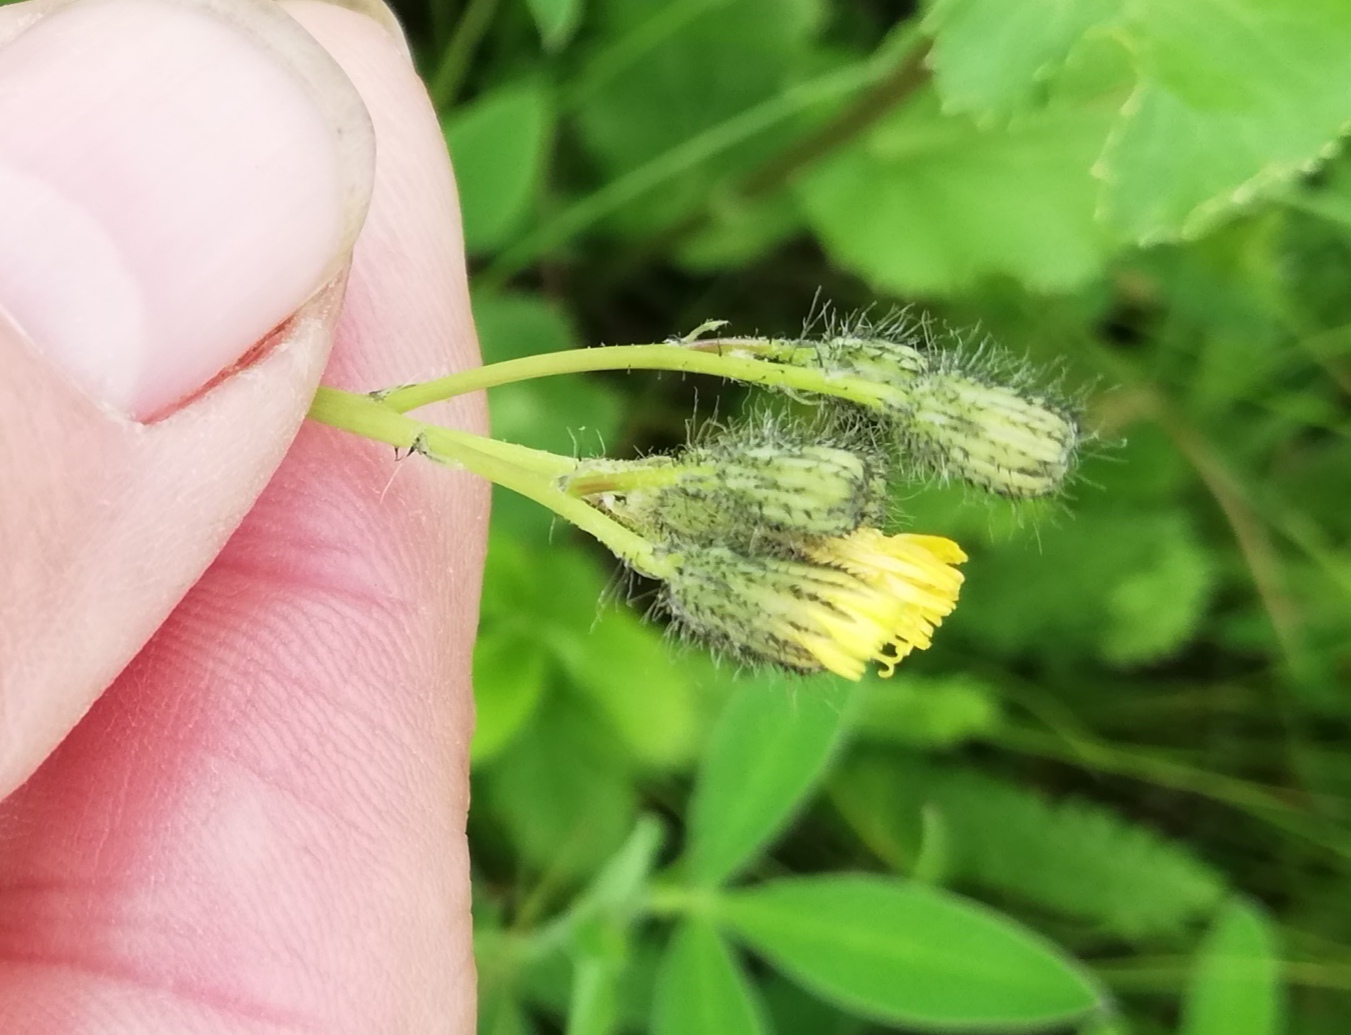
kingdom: Plantae
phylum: Tracheophyta
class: Magnoliopsida
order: Asterales
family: Asteraceae
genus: Pilosella
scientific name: Pilosella
